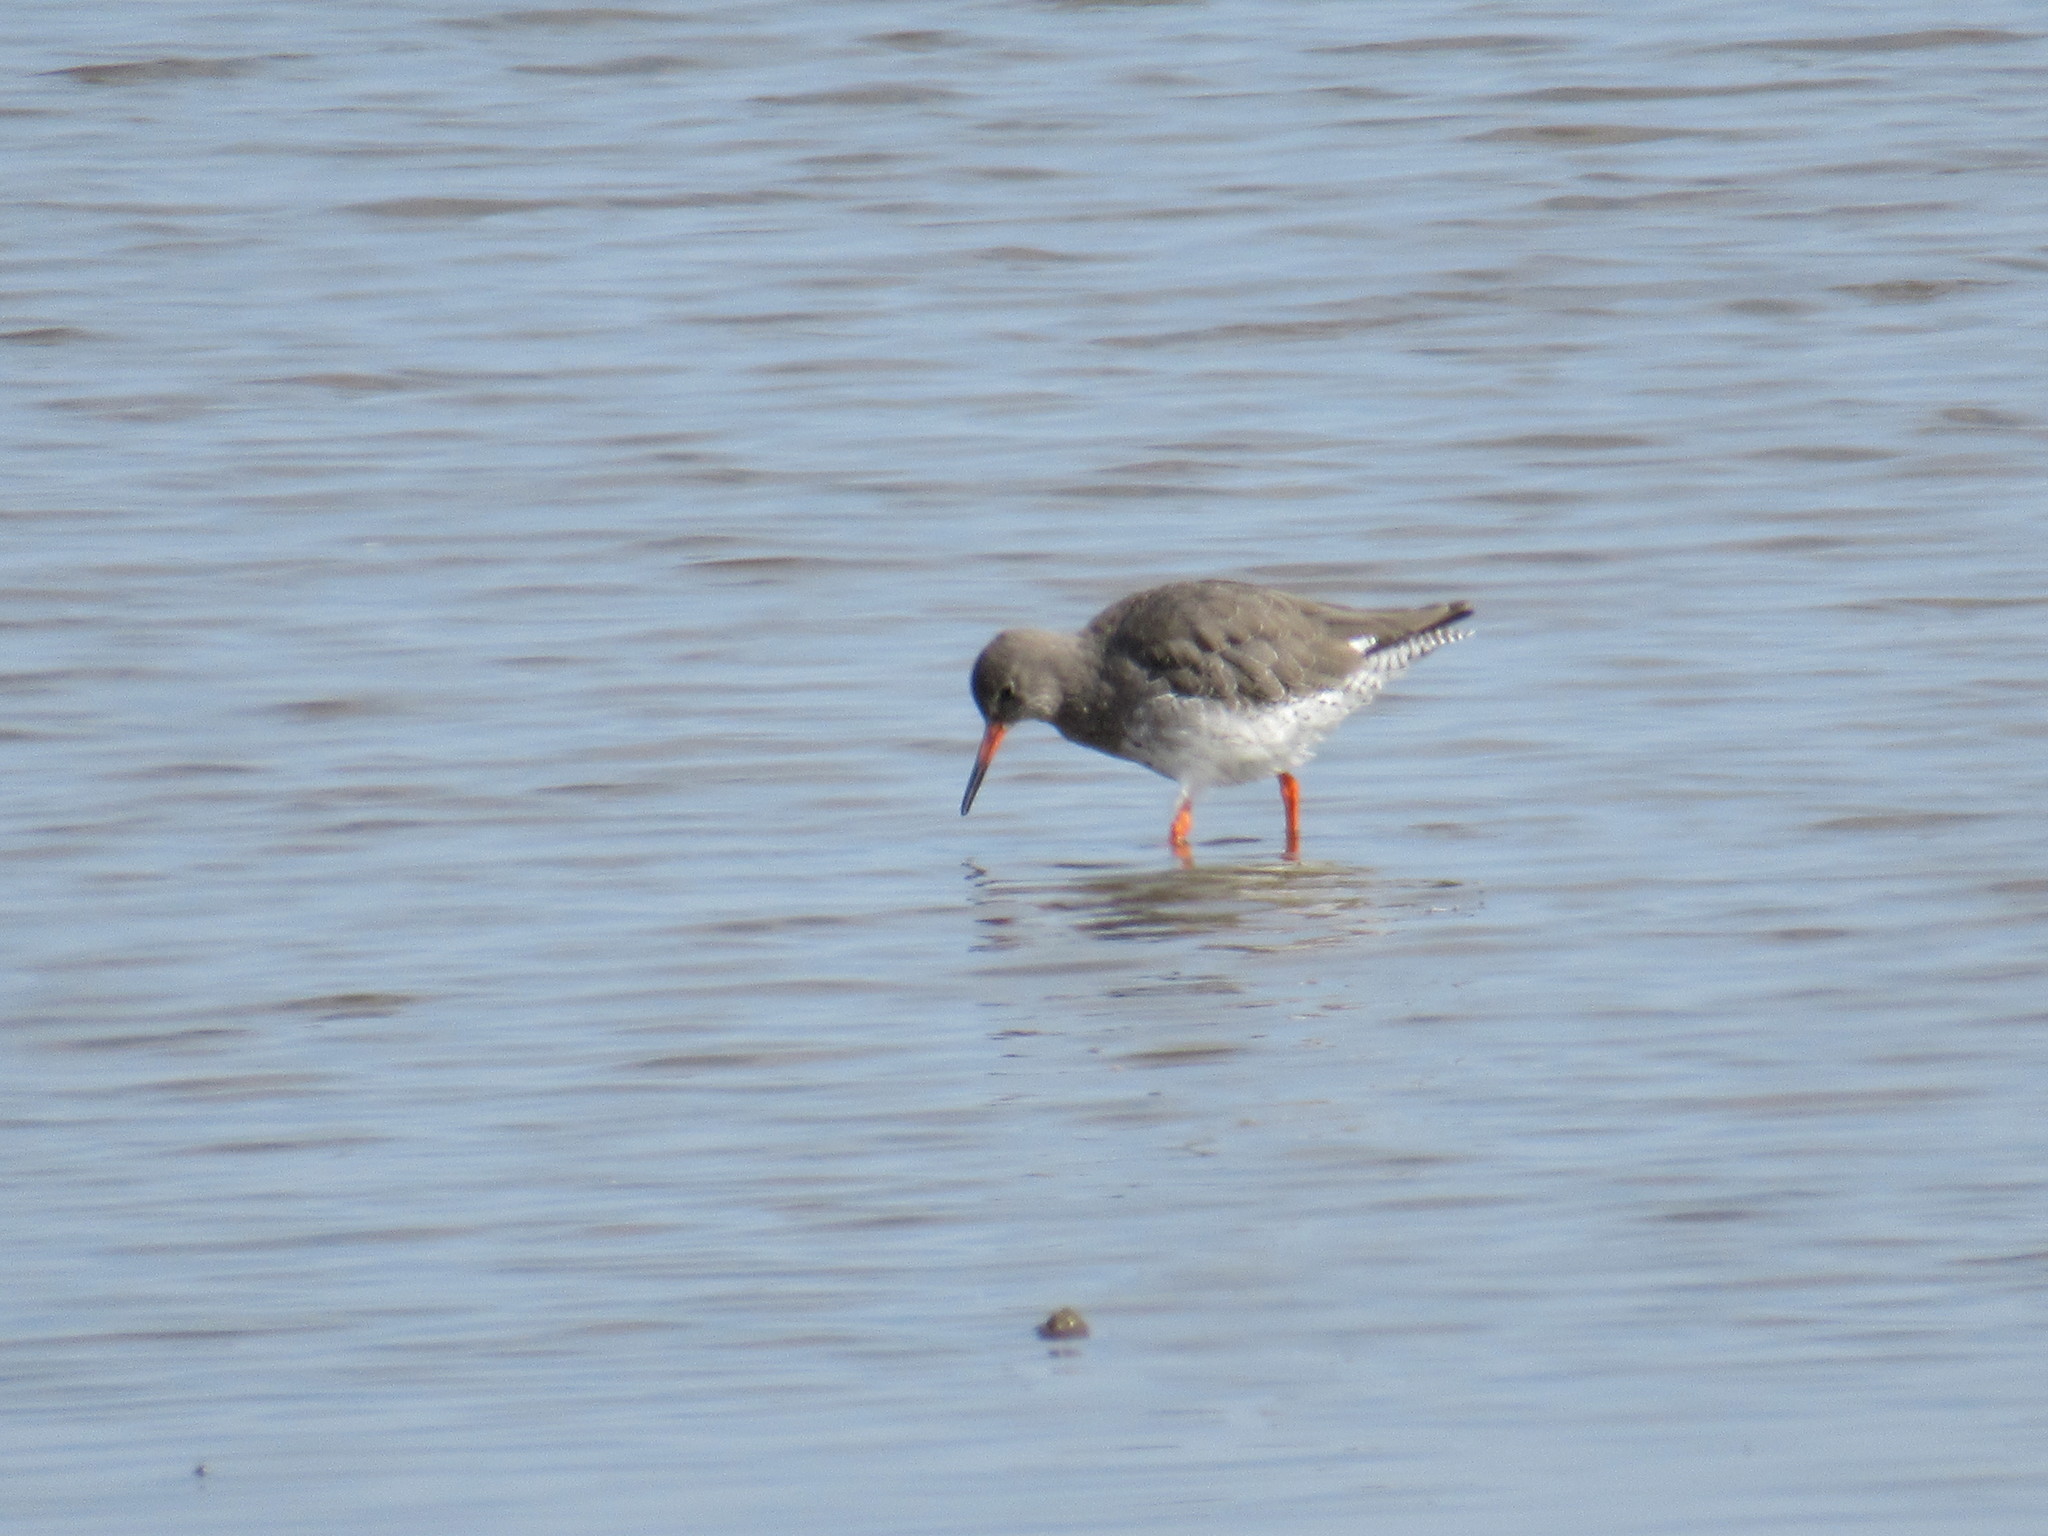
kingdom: Animalia
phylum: Chordata
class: Aves
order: Charadriiformes
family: Scolopacidae
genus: Tringa
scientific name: Tringa totanus
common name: Common redshank
